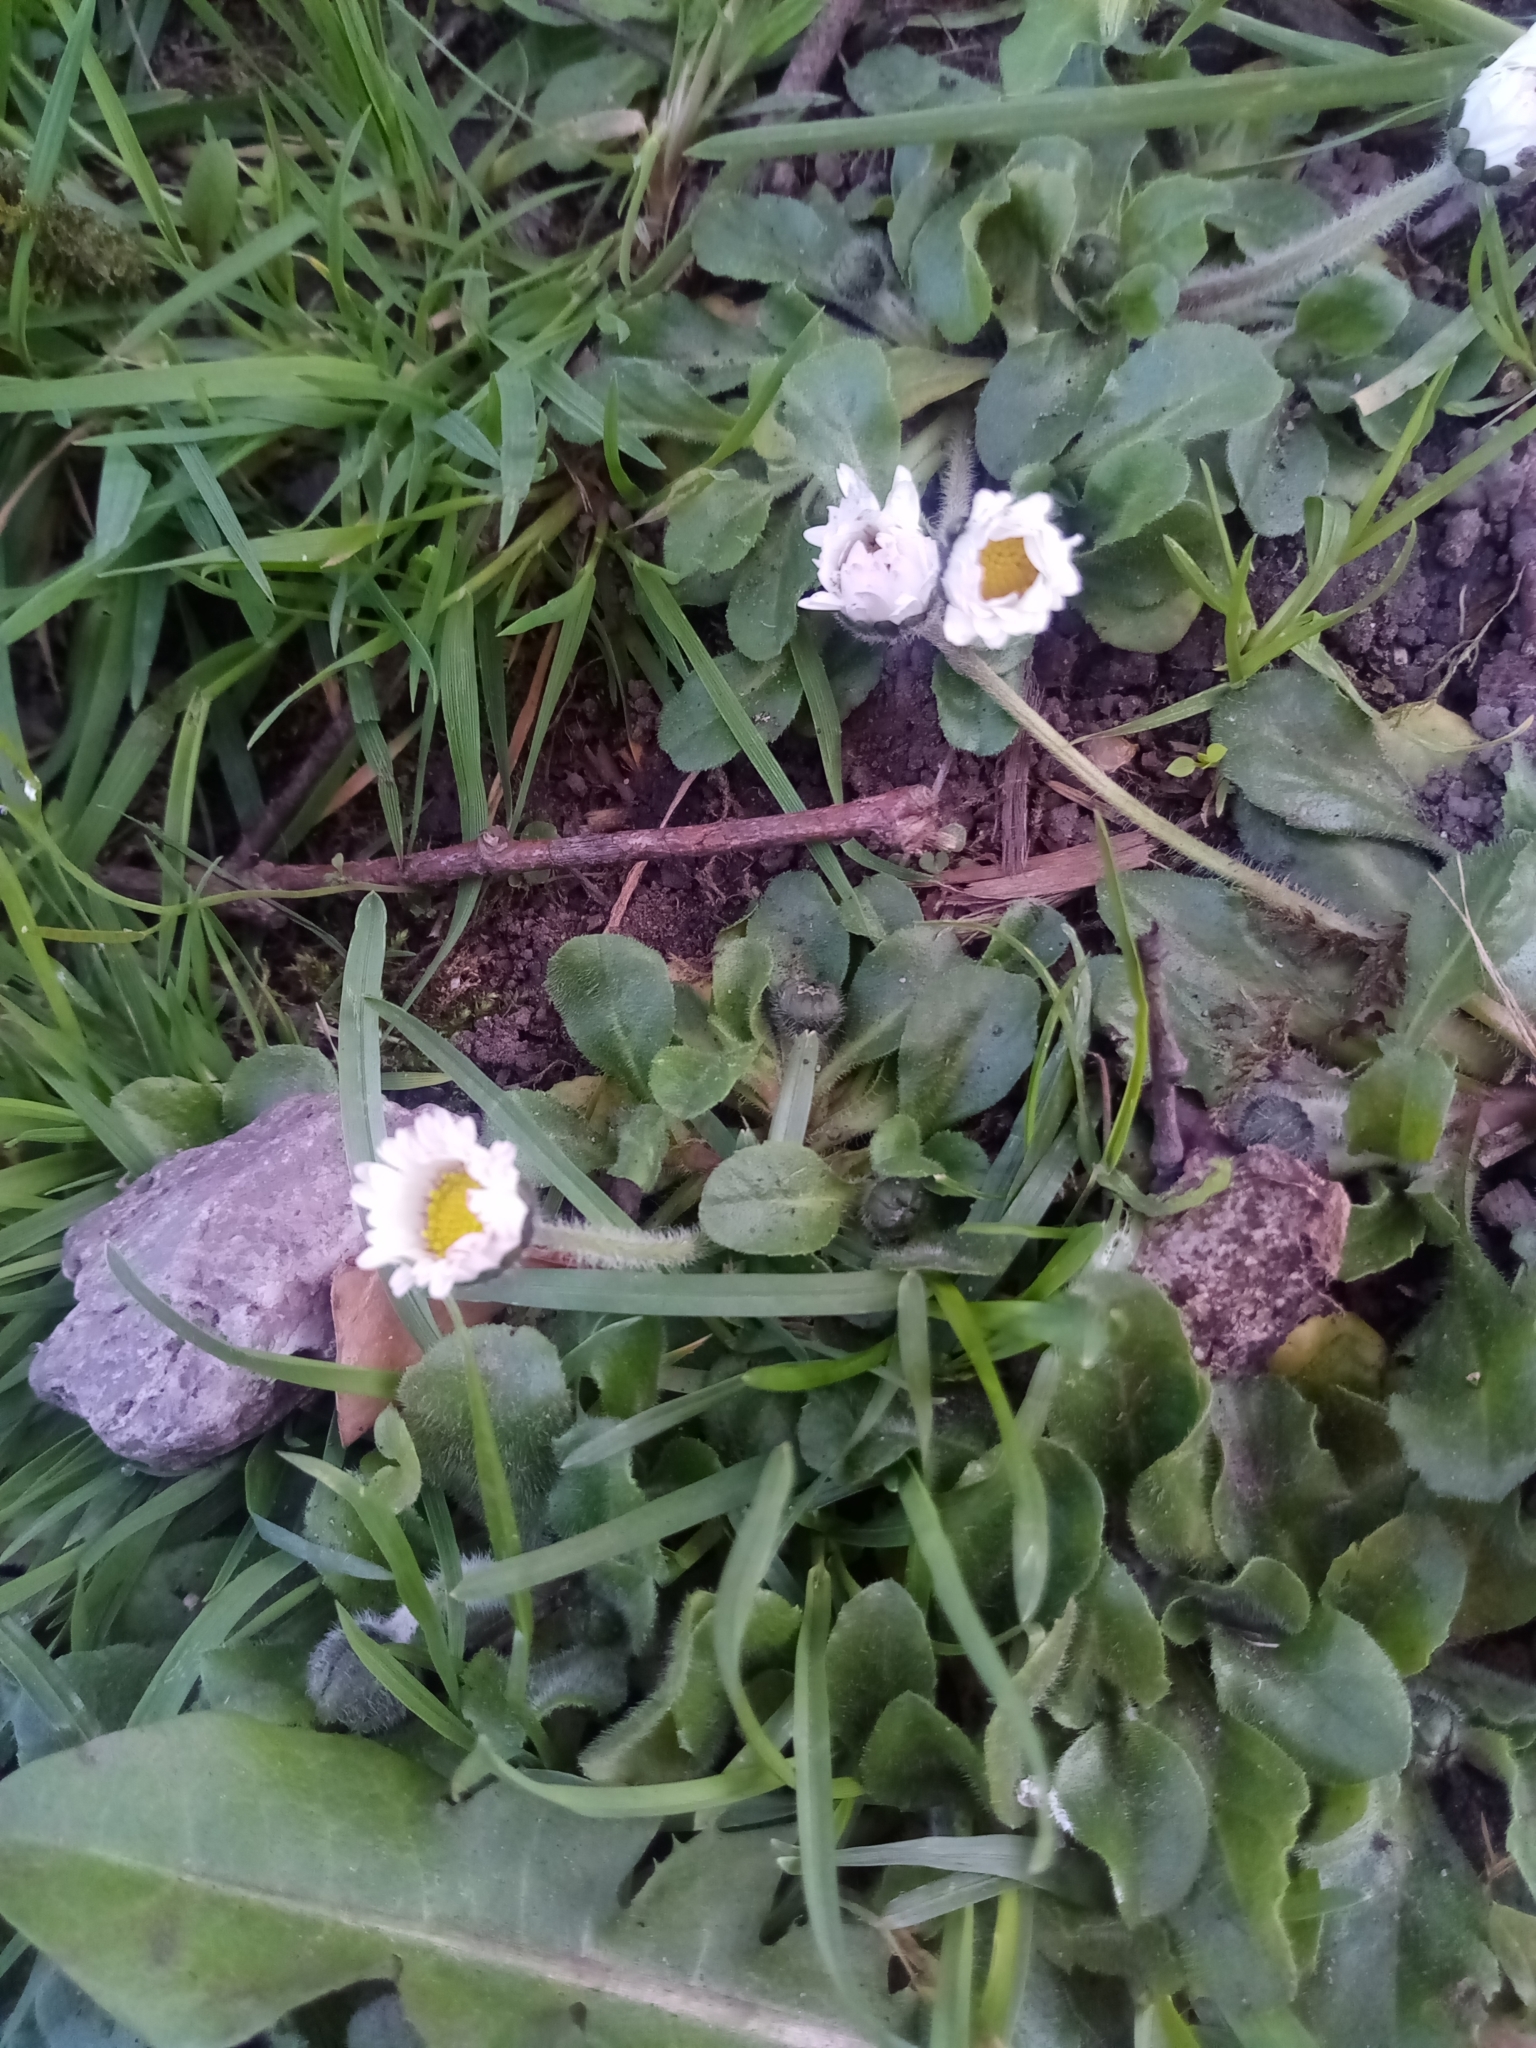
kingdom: Plantae
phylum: Tracheophyta
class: Magnoliopsida
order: Asterales
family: Asteraceae
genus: Bellis
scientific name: Bellis perennis
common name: Lawndaisy
